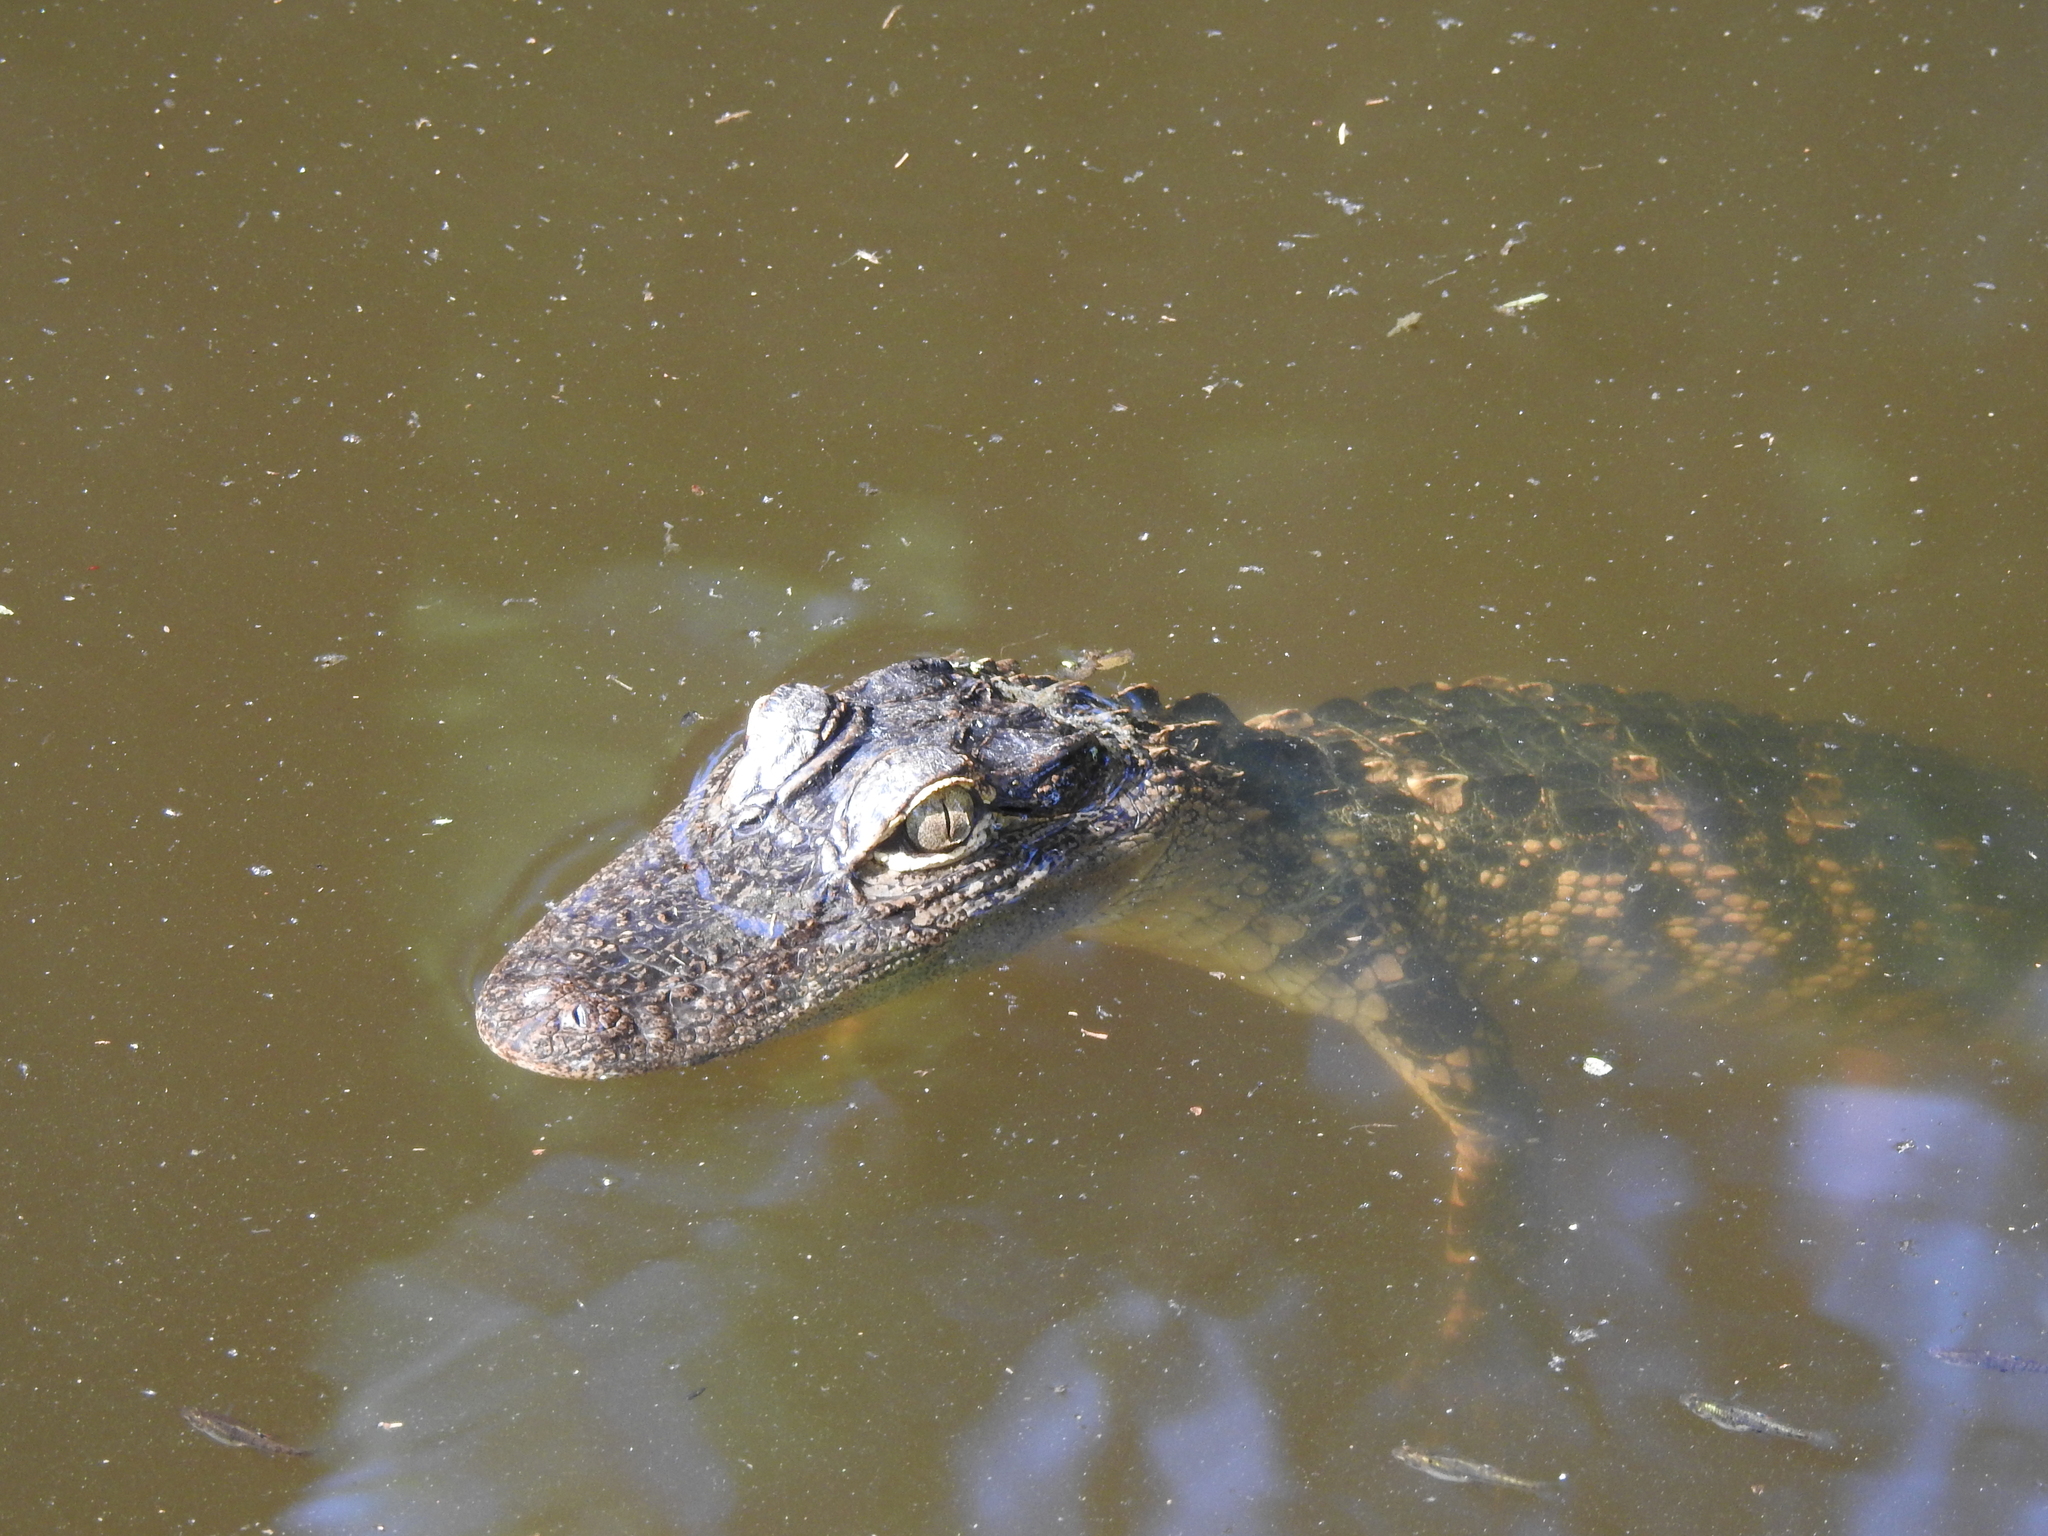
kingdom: Animalia
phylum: Chordata
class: Crocodylia
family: Alligatoridae
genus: Alligator
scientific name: Alligator mississippiensis
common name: American alligator
